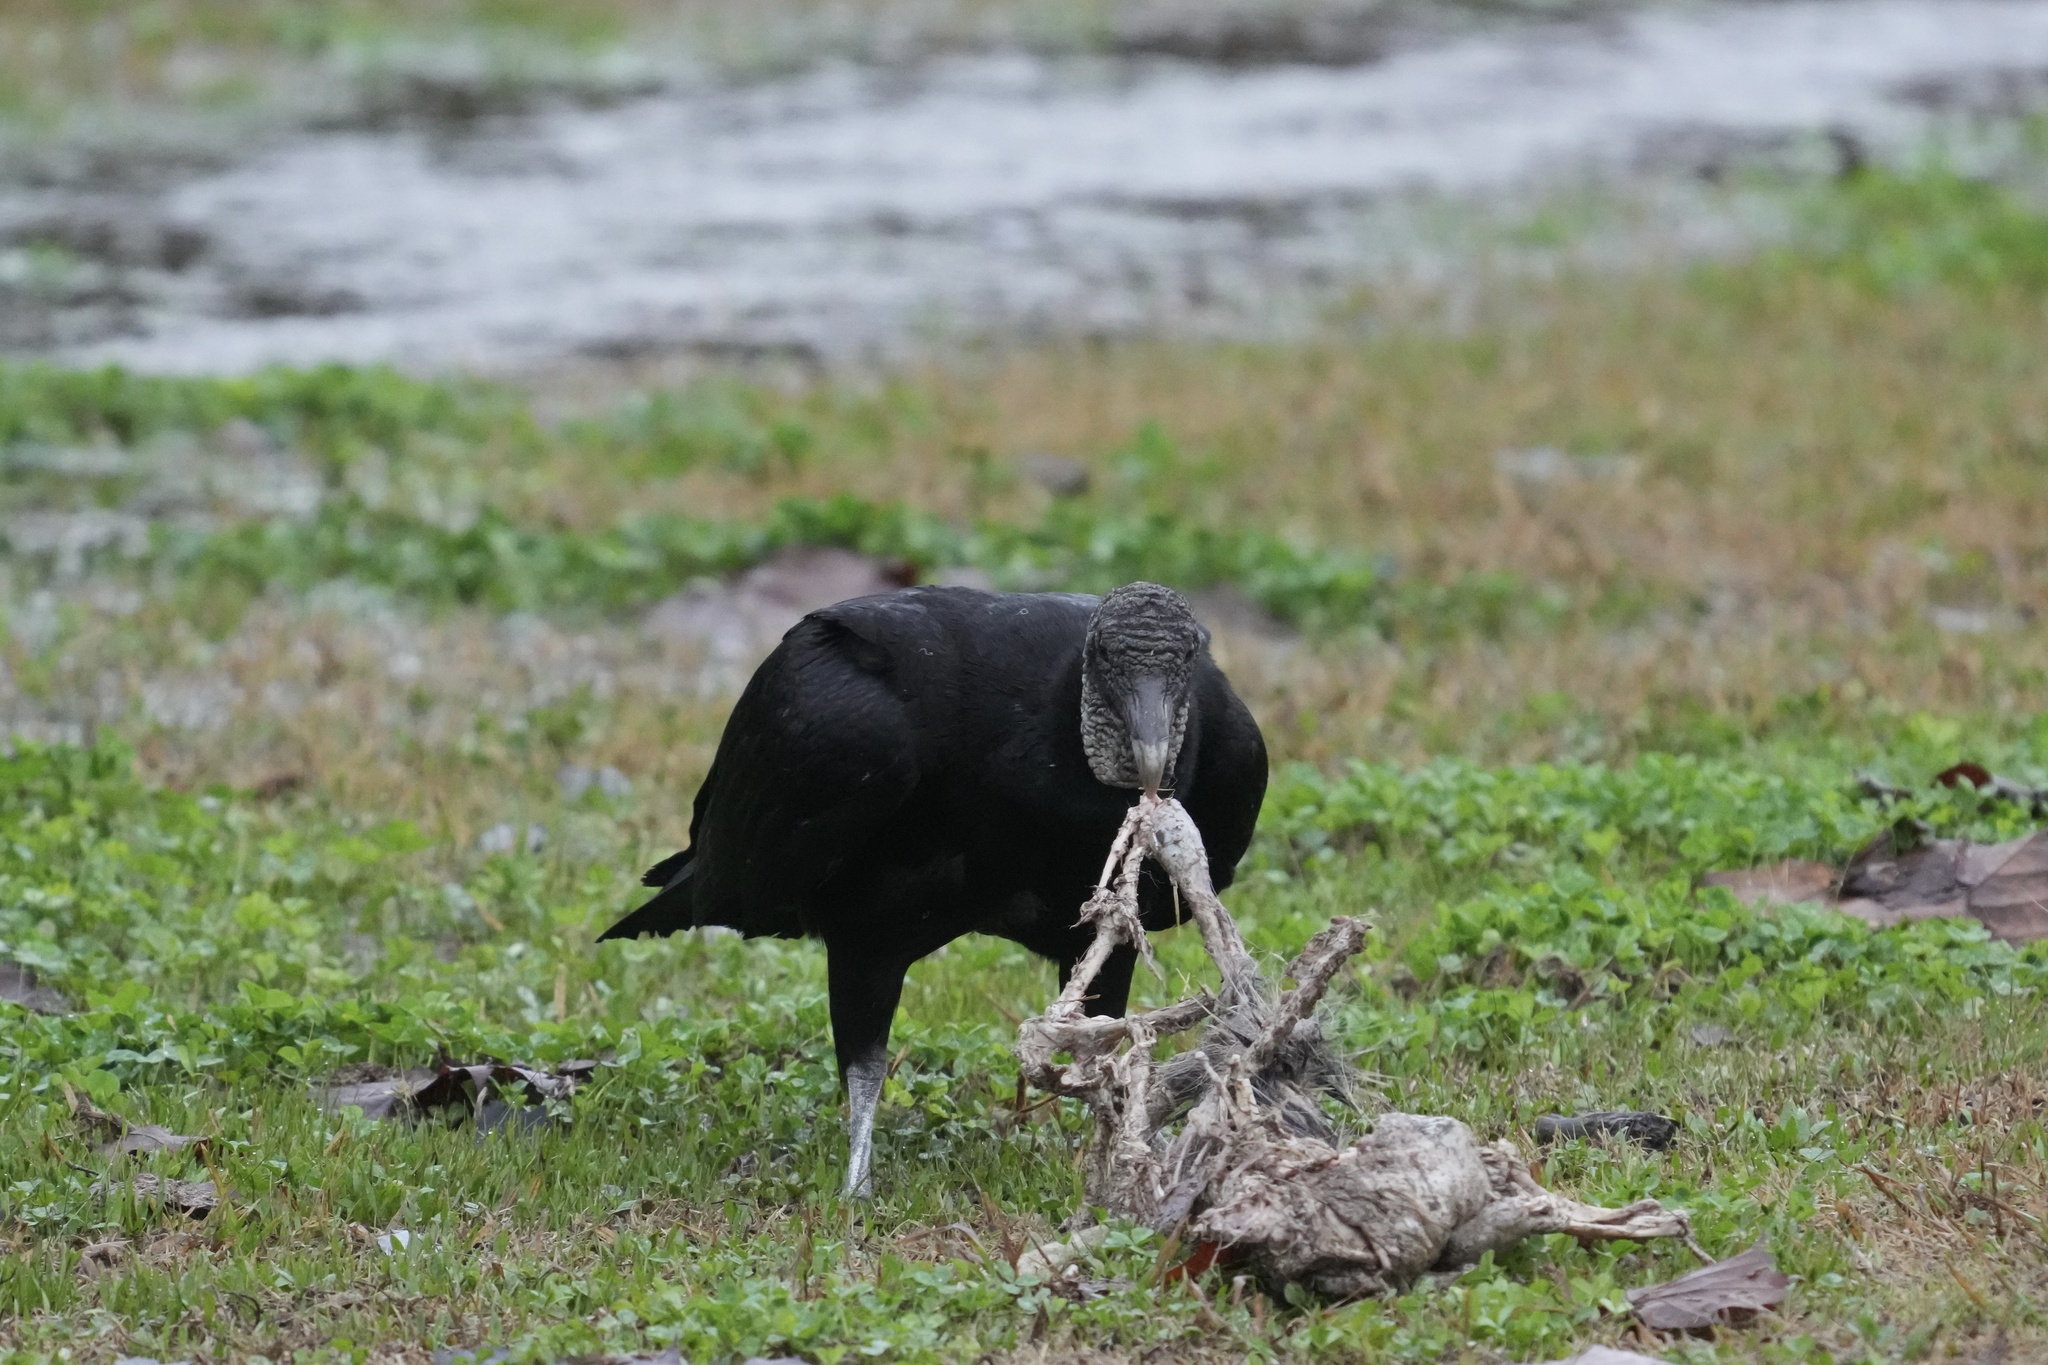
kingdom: Animalia
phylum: Chordata
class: Aves
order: Accipitriformes
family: Cathartidae
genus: Coragyps
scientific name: Coragyps atratus
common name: Black vulture
